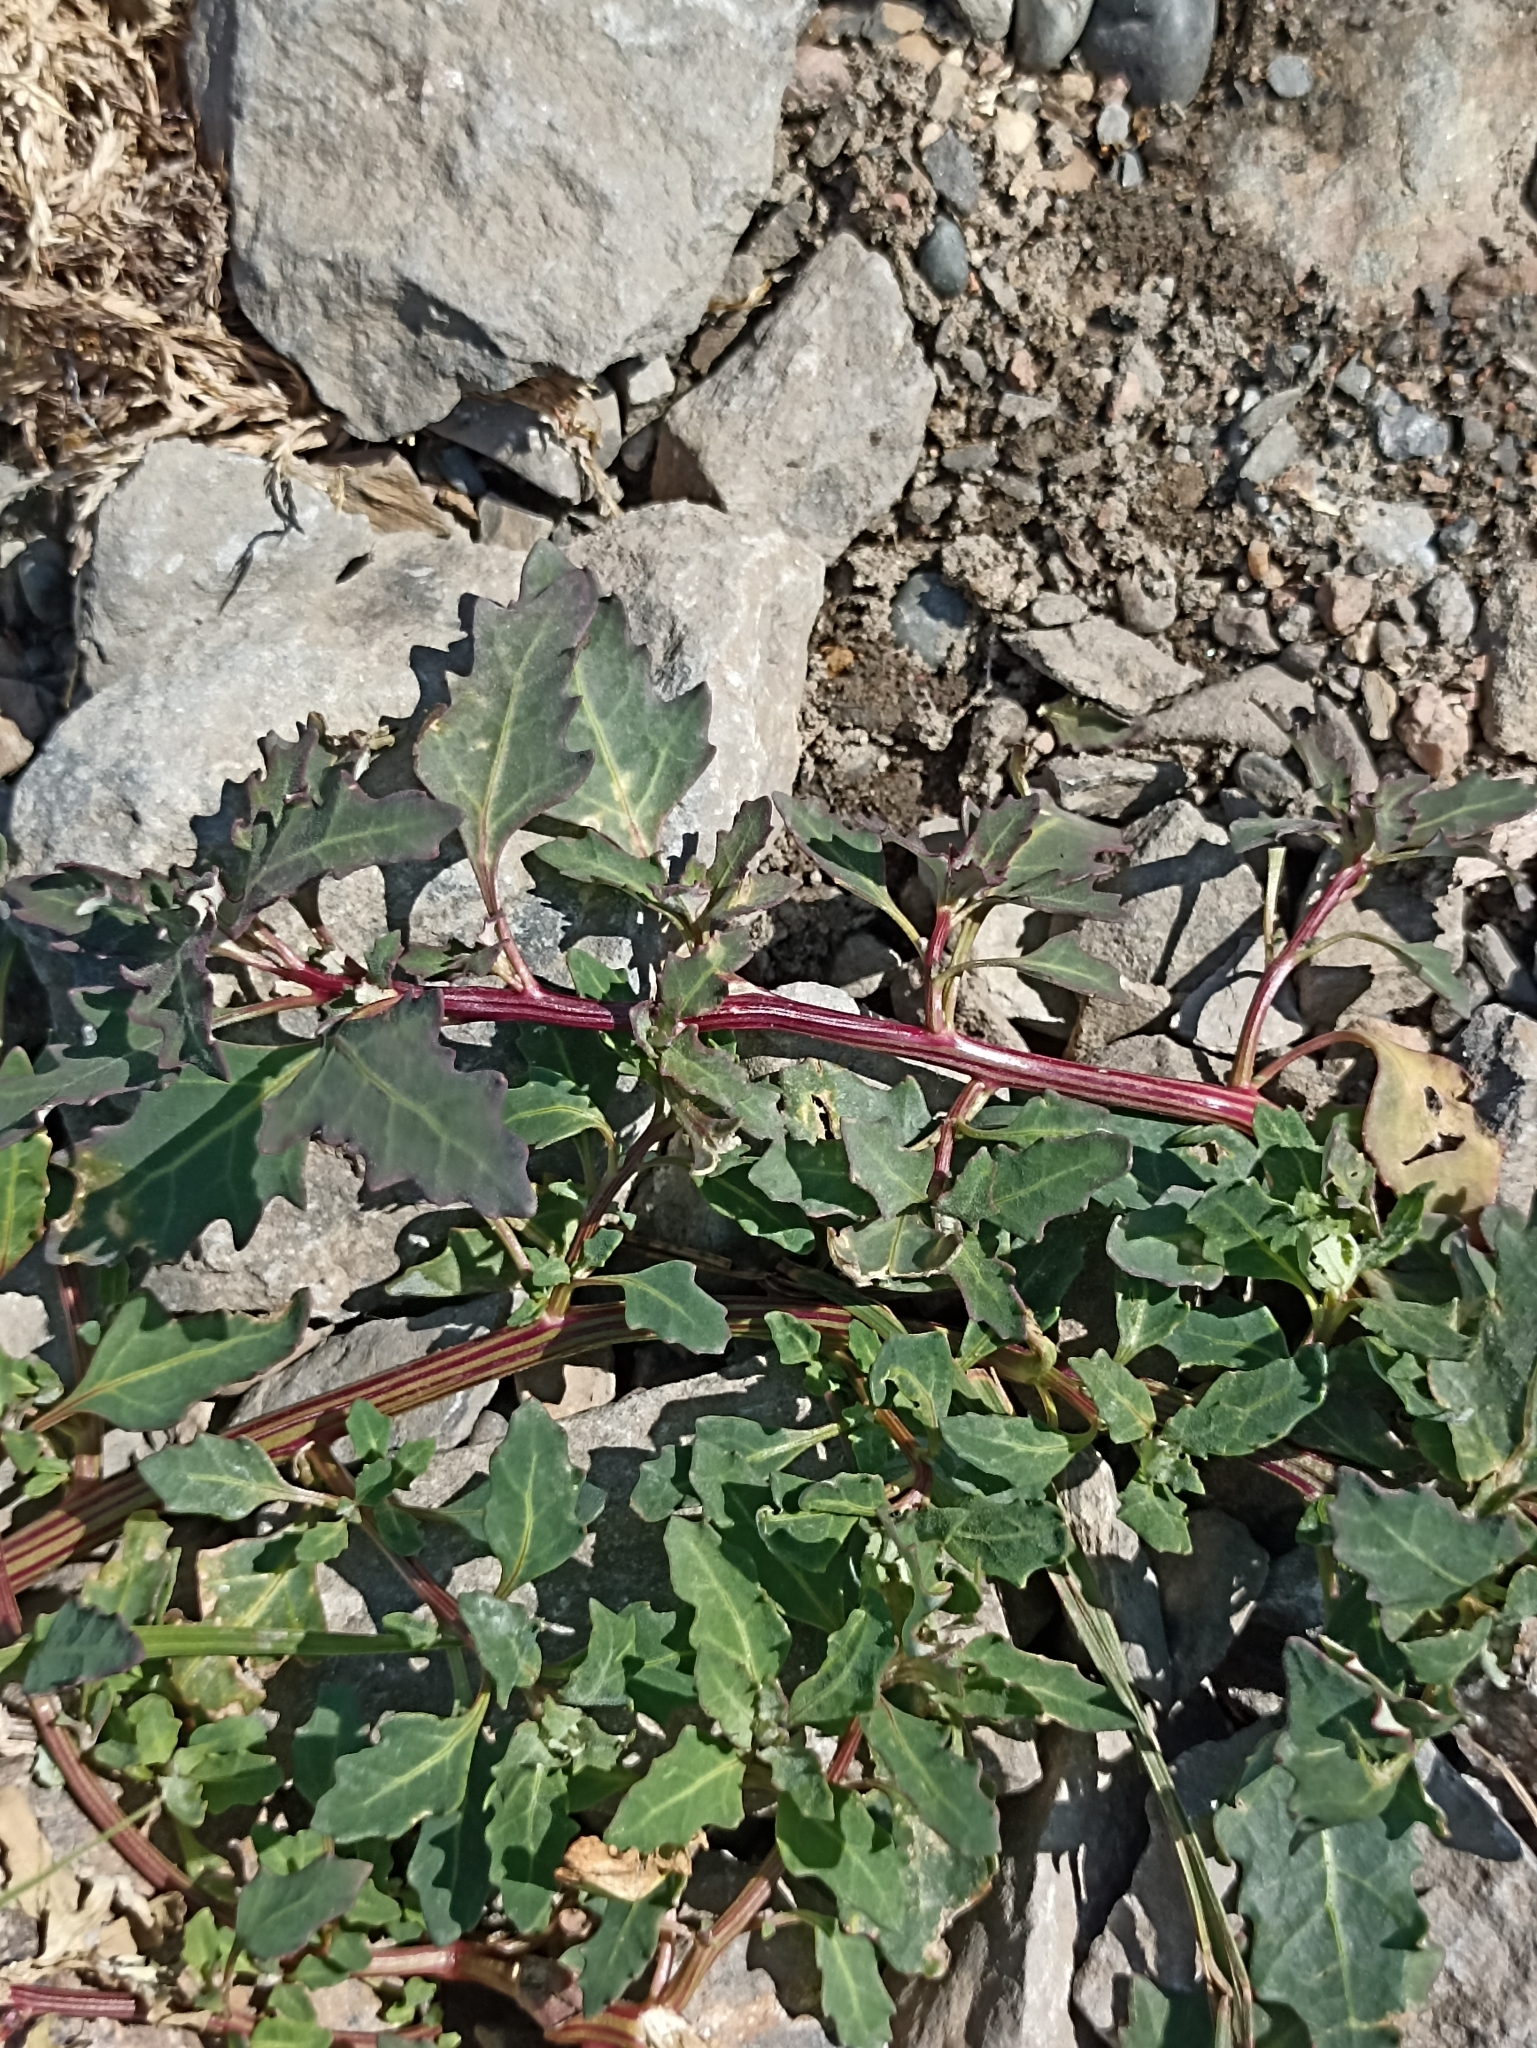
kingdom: Plantae
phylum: Tracheophyta
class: Magnoliopsida
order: Caryophyllales
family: Amaranthaceae
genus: Oxybasis
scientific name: Oxybasis glauca
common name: Glaucous goosefoot
